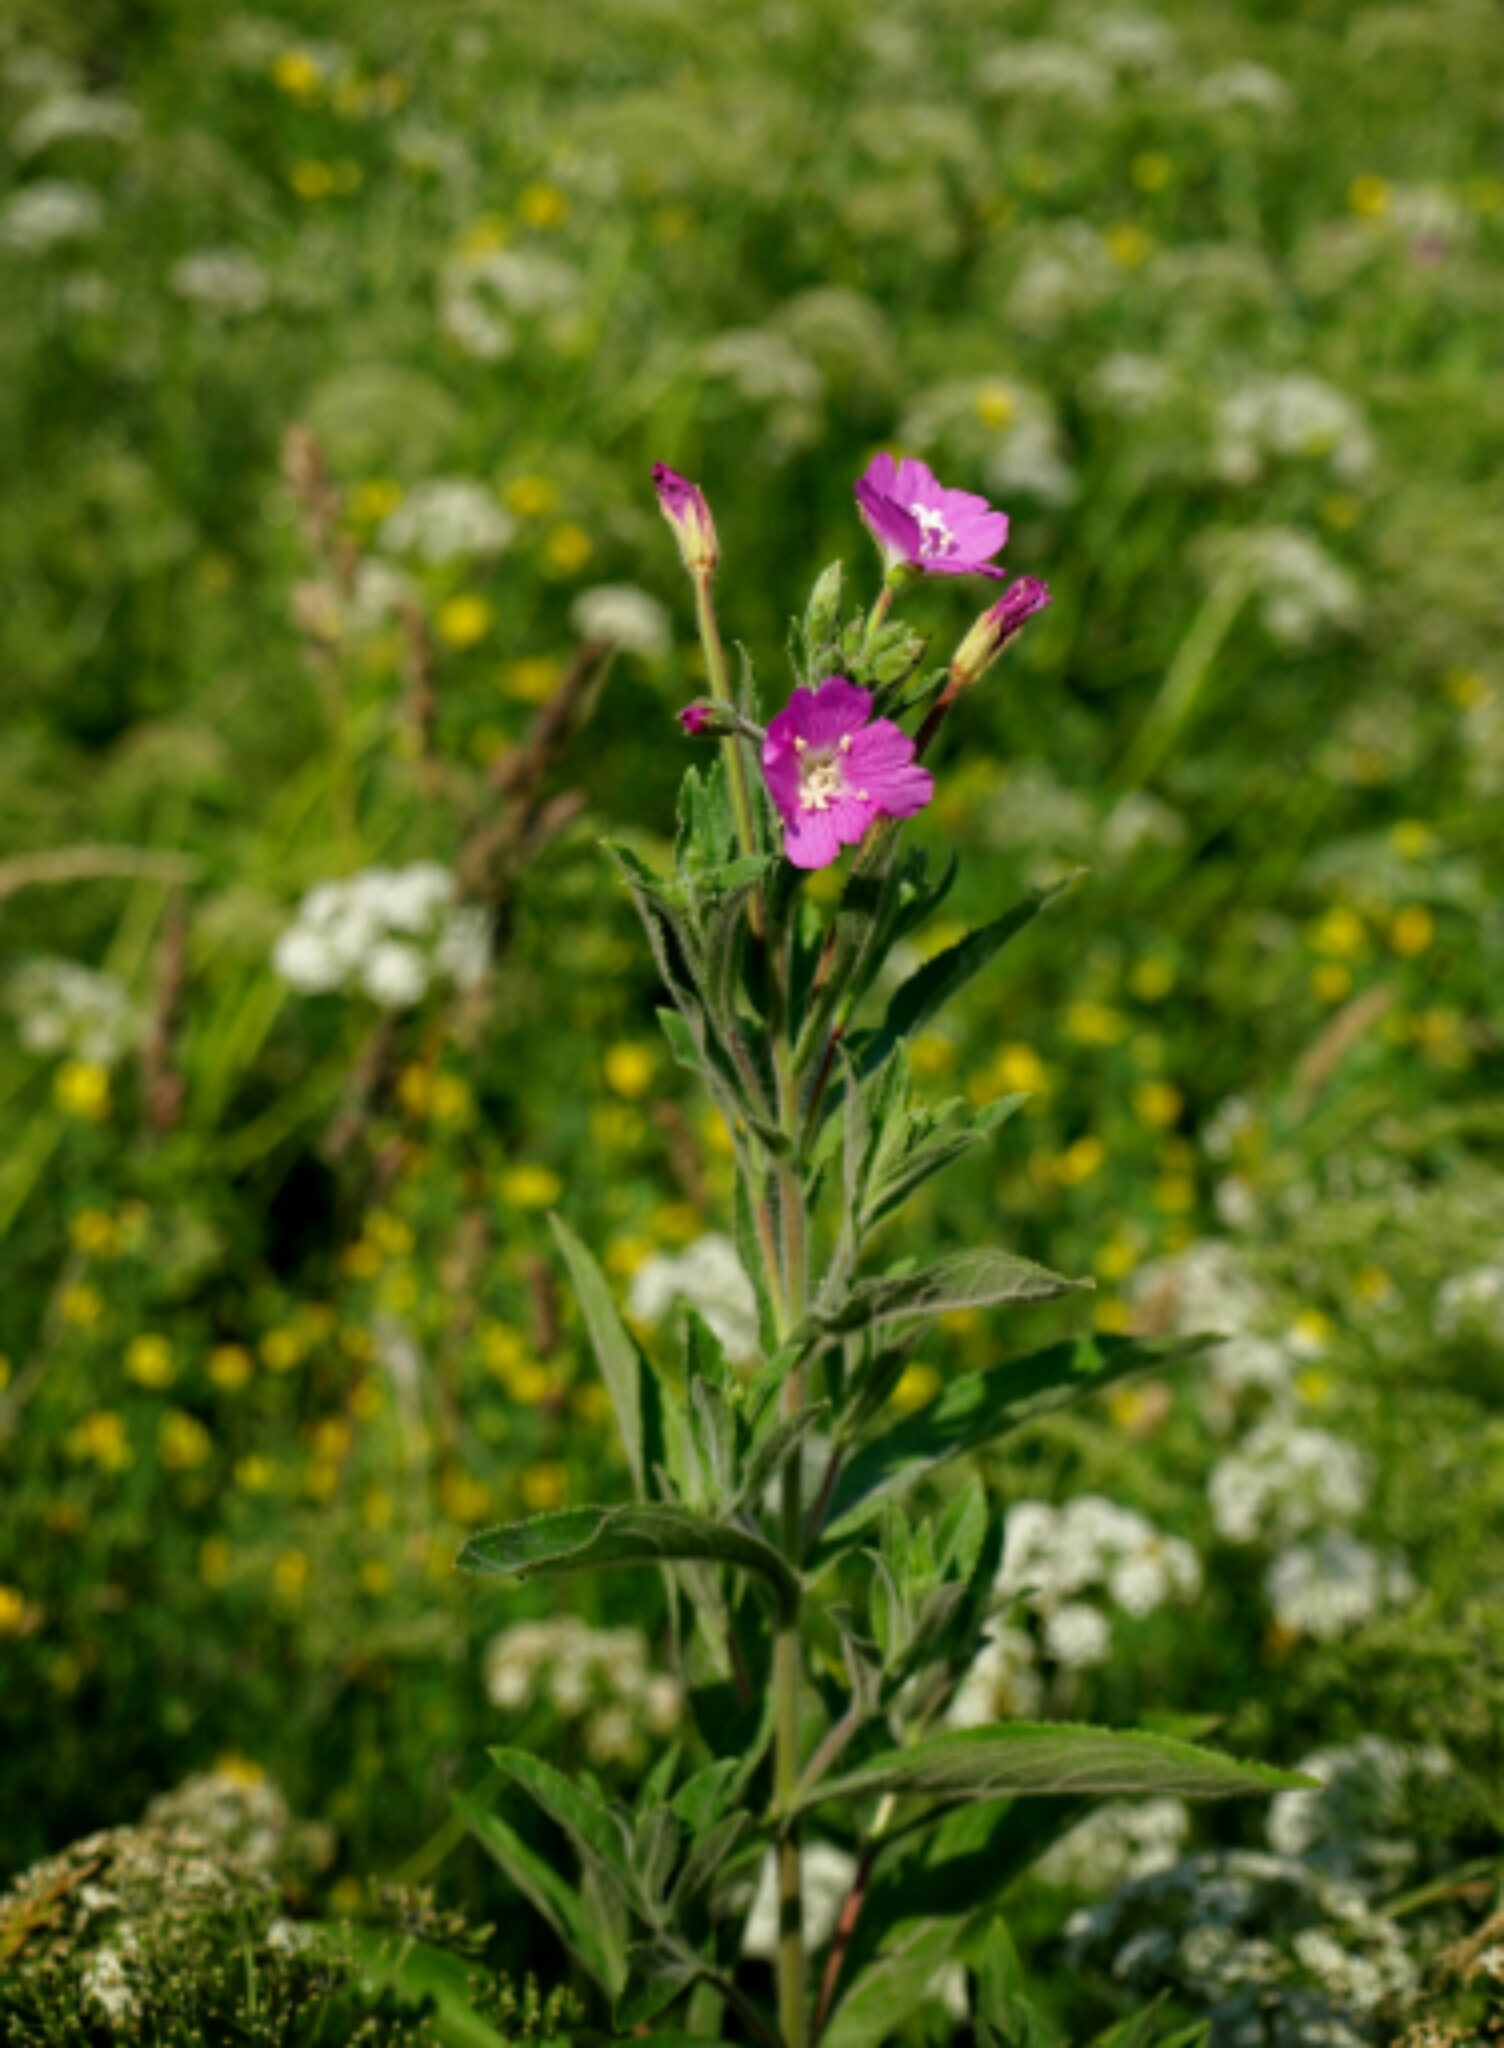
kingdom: Plantae
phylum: Tracheophyta
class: Magnoliopsida
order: Myrtales
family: Onagraceae
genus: Epilobium
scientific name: Epilobium hirsutum
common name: Great willowherb
